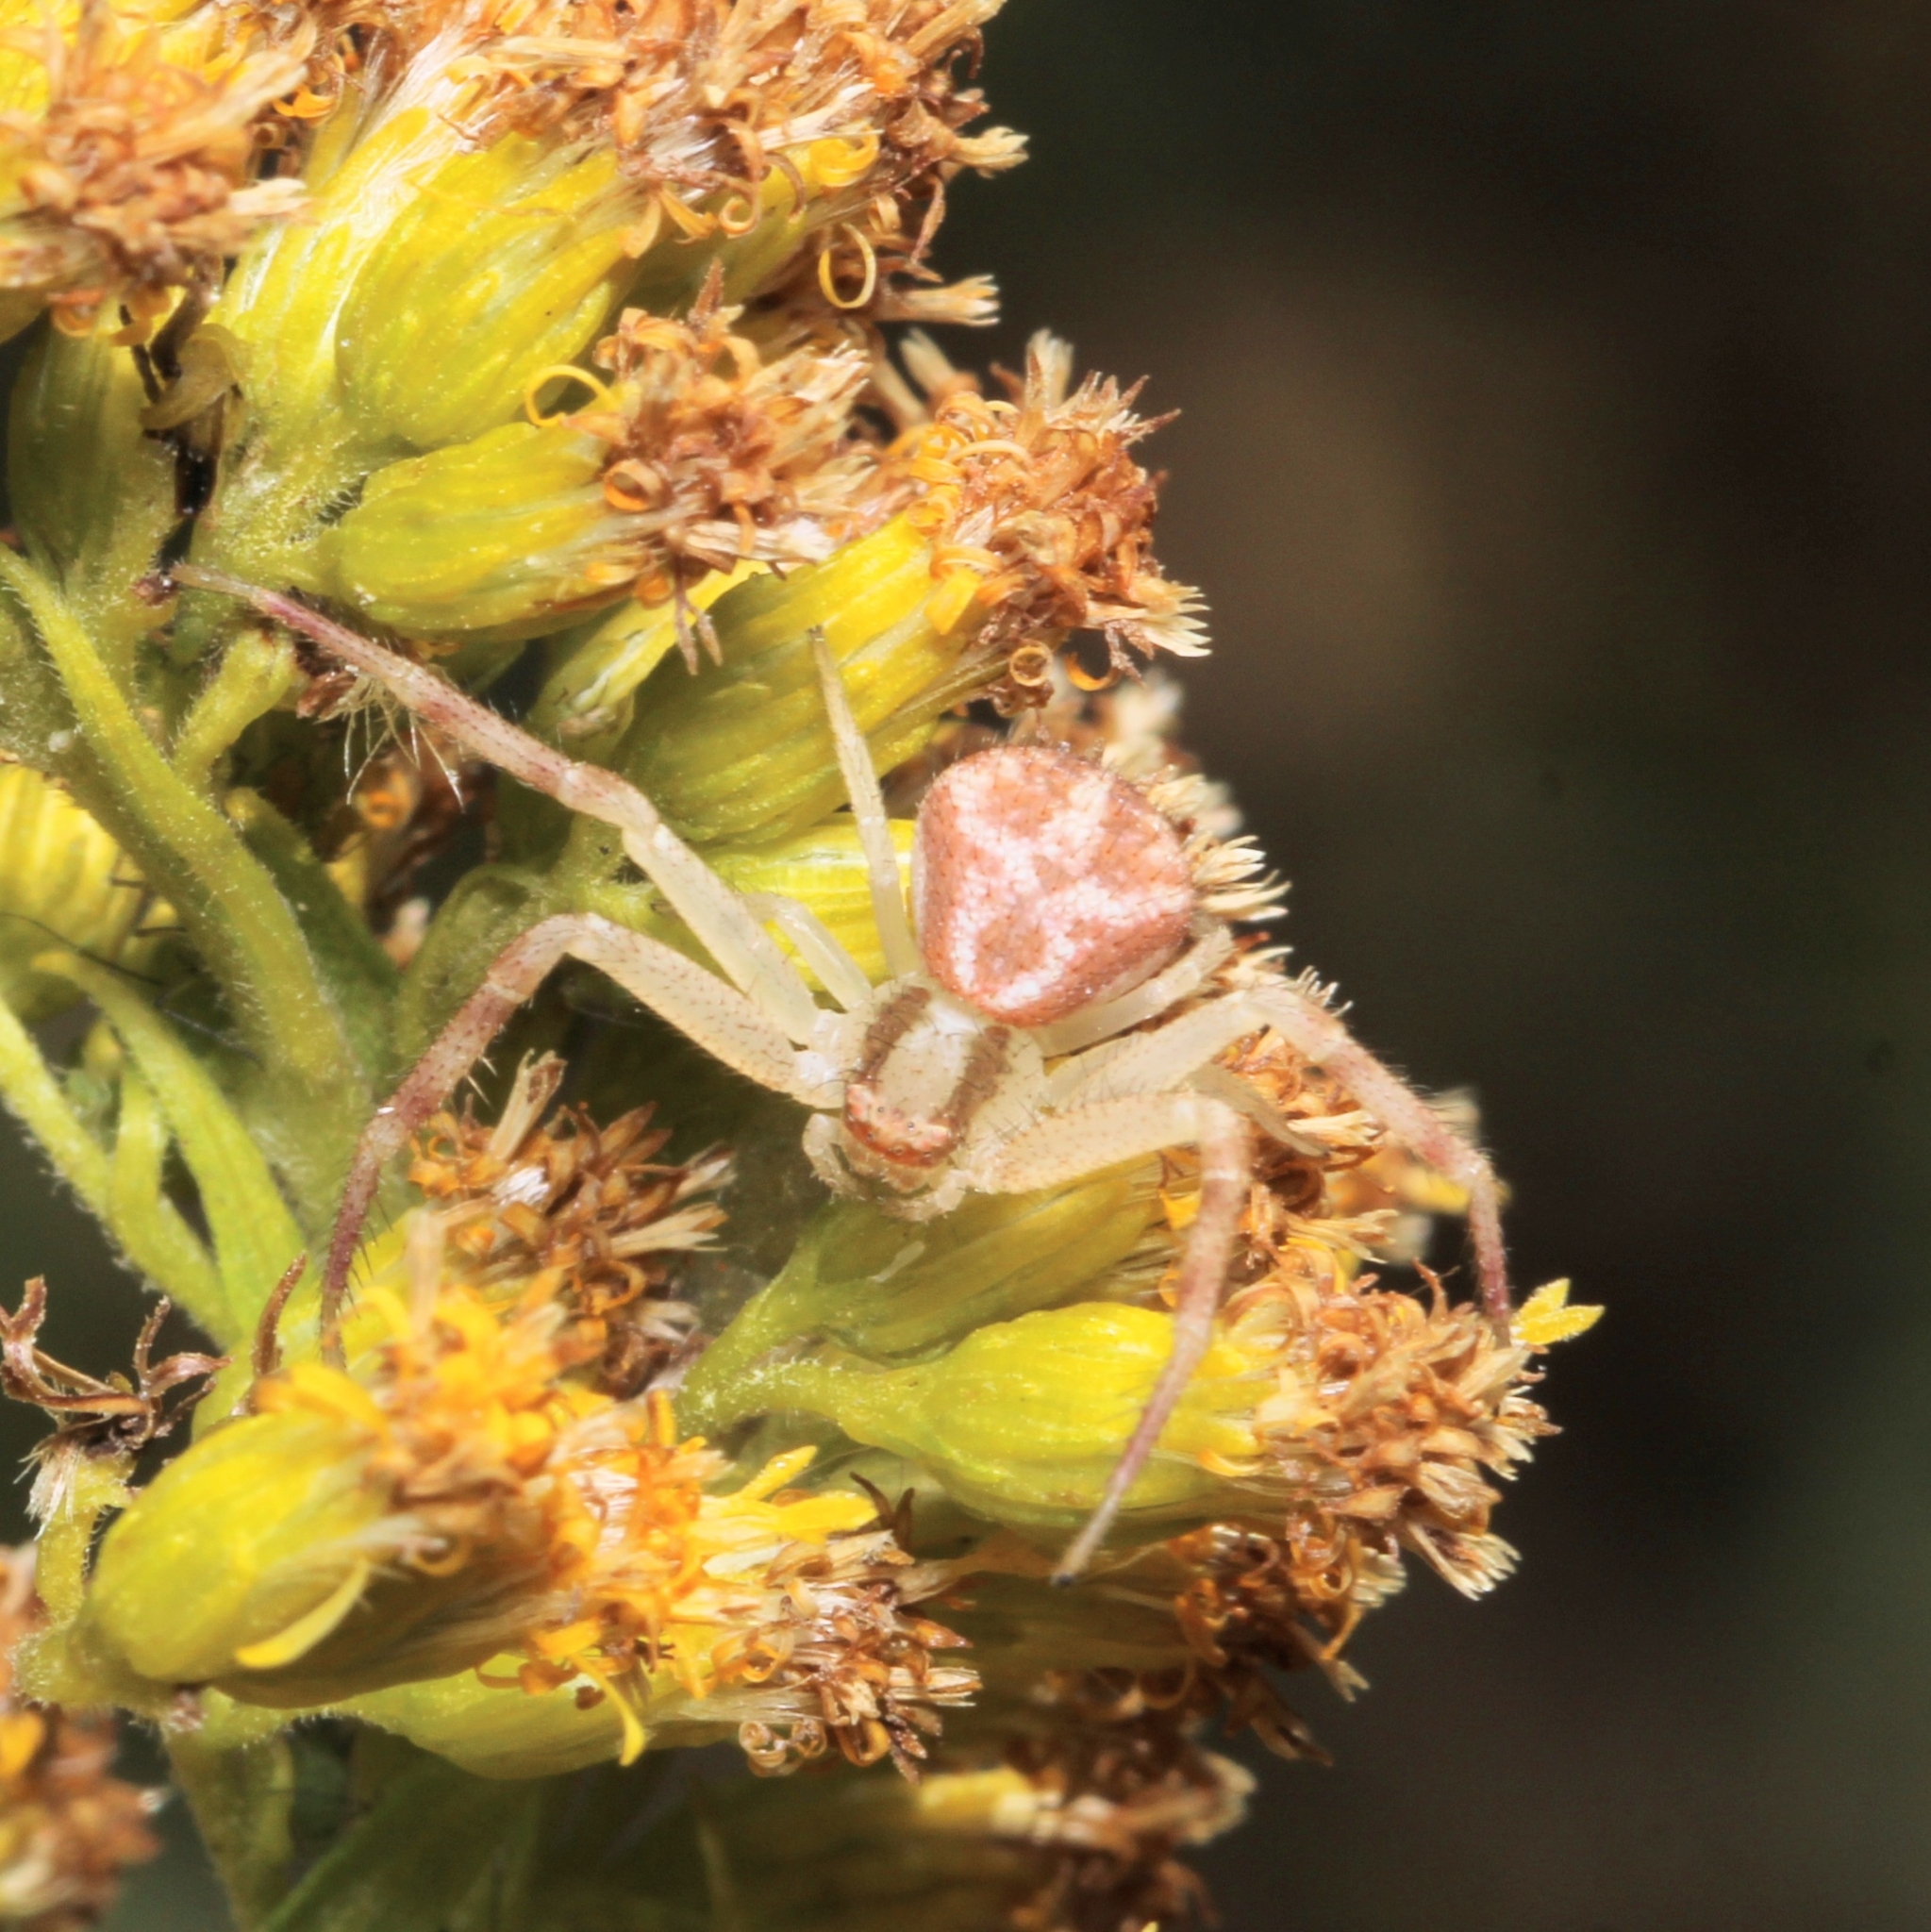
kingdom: Animalia
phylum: Arthropoda
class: Arachnida
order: Araneae
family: Thomisidae
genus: Mecaphesa
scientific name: Mecaphesa asperata
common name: Crab spiders
